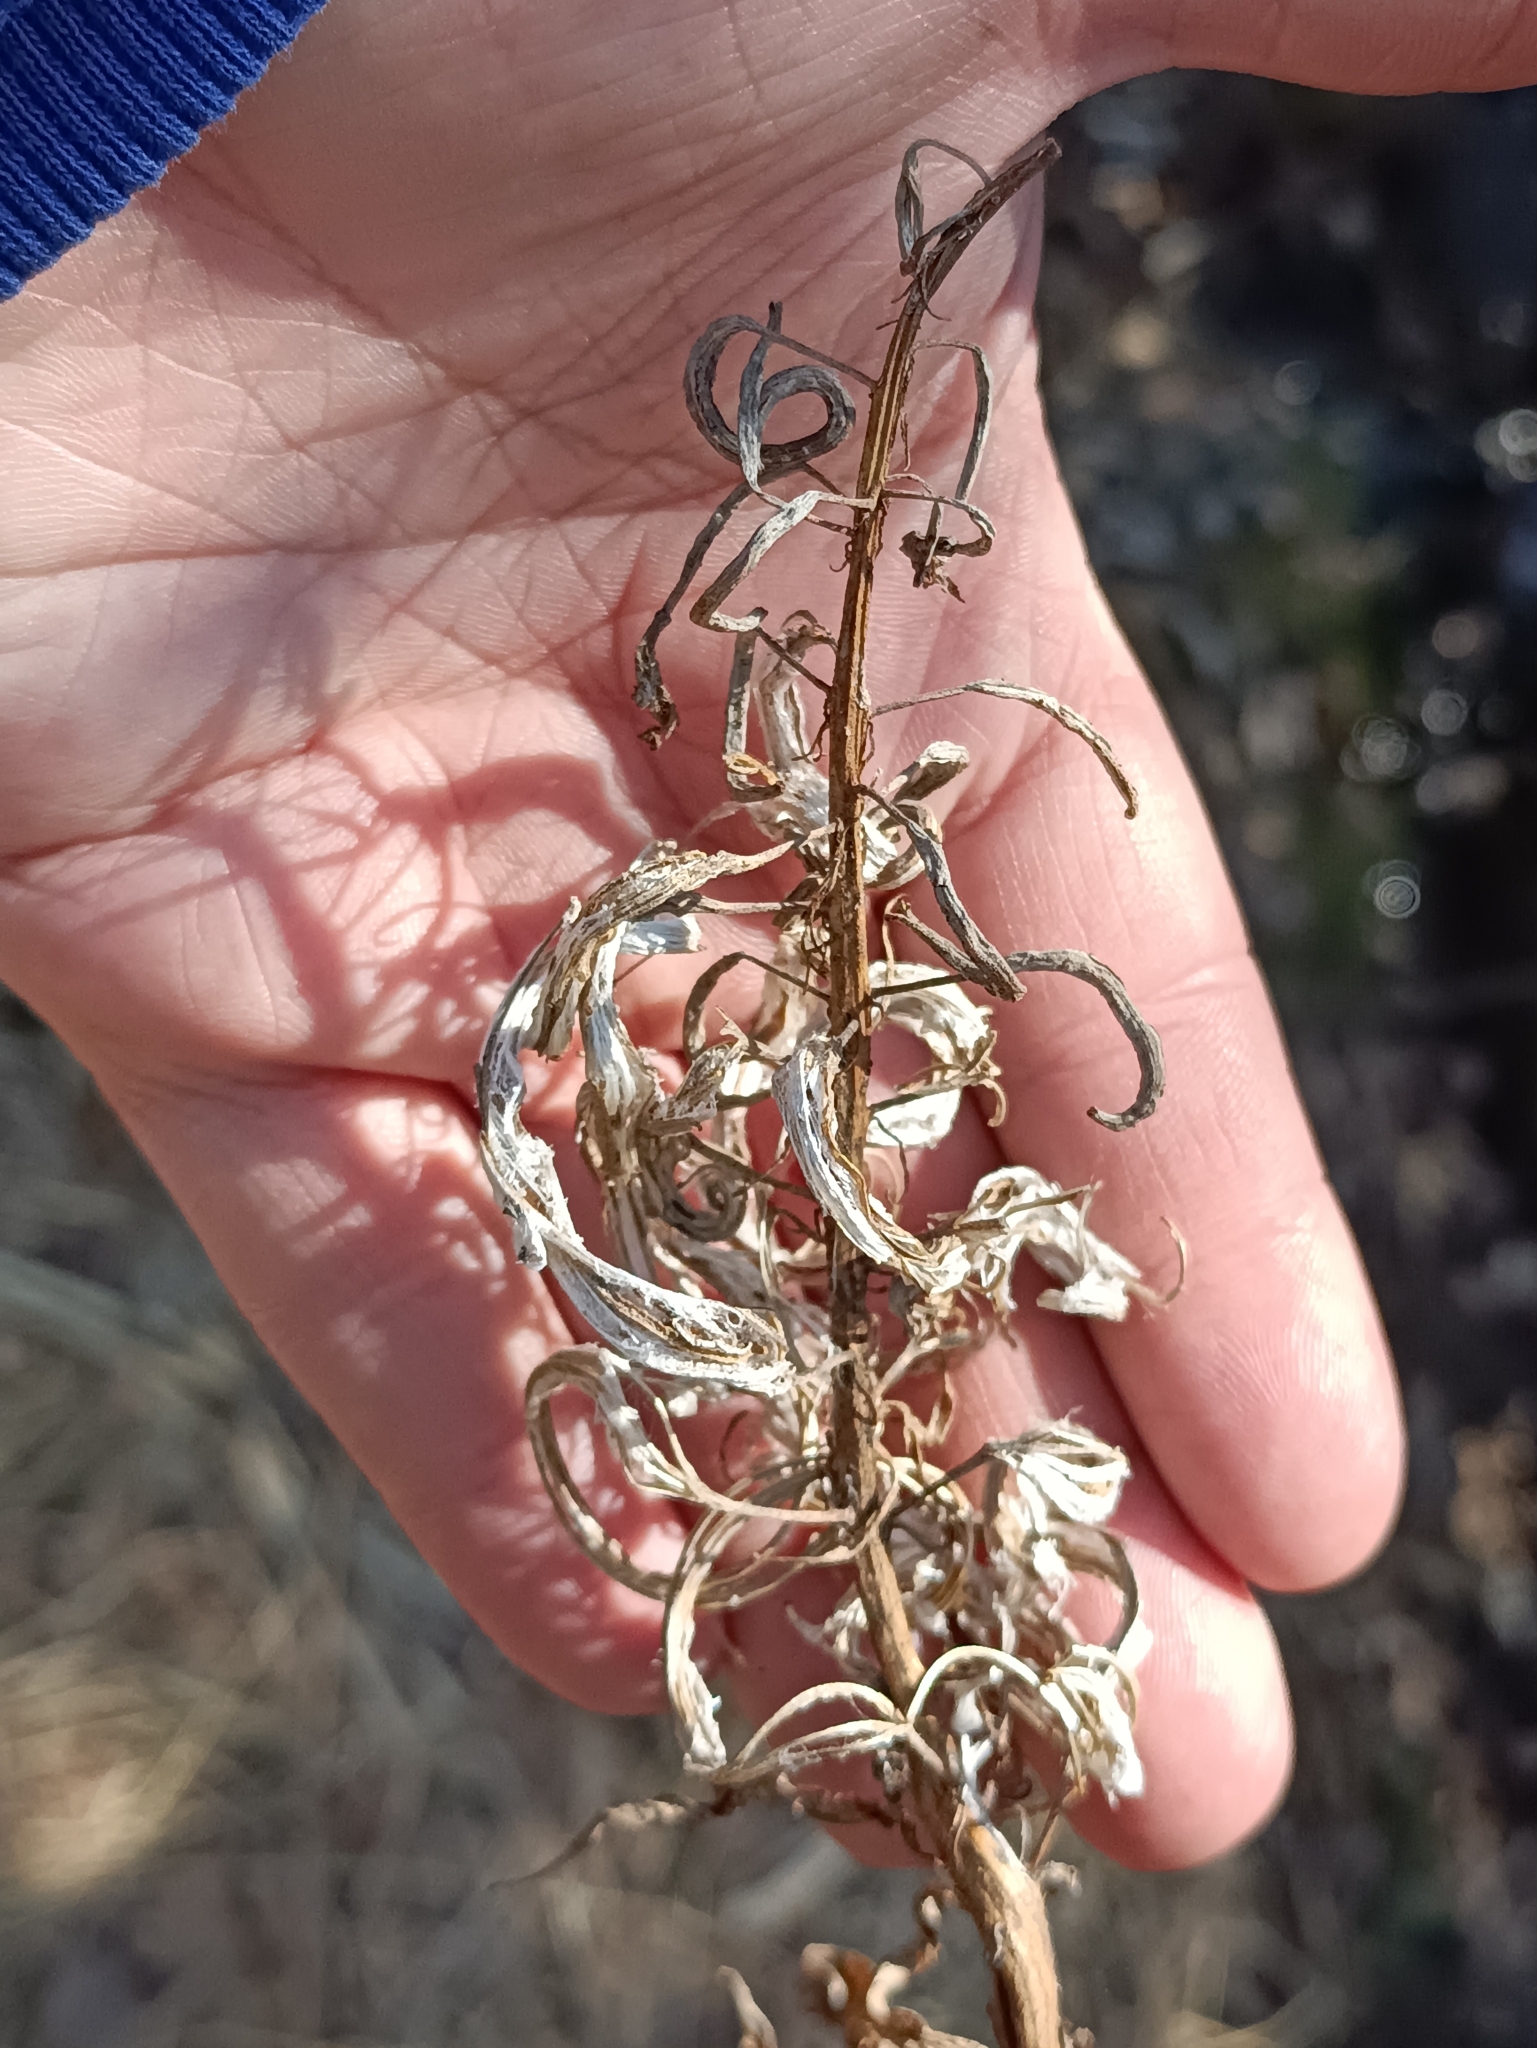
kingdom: Plantae
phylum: Tracheophyta
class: Magnoliopsida
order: Myrtales
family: Onagraceae
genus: Chamaenerion
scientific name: Chamaenerion angustifolium
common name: Fireweed
